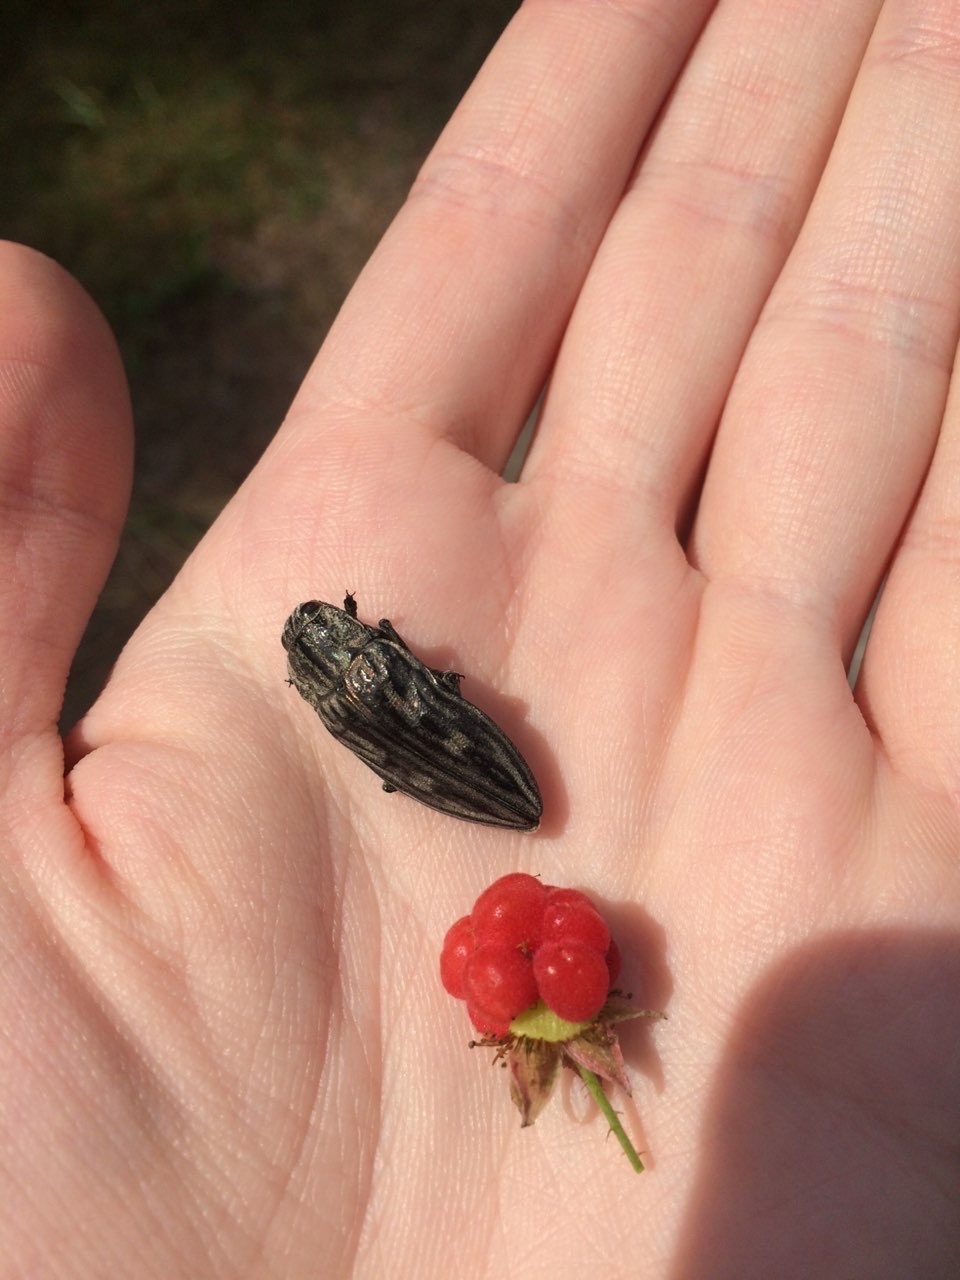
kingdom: Animalia
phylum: Arthropoda
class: Insecta
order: Coleoptera
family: Buprestidae
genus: Chalcophora
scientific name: Chalcophora mariana
